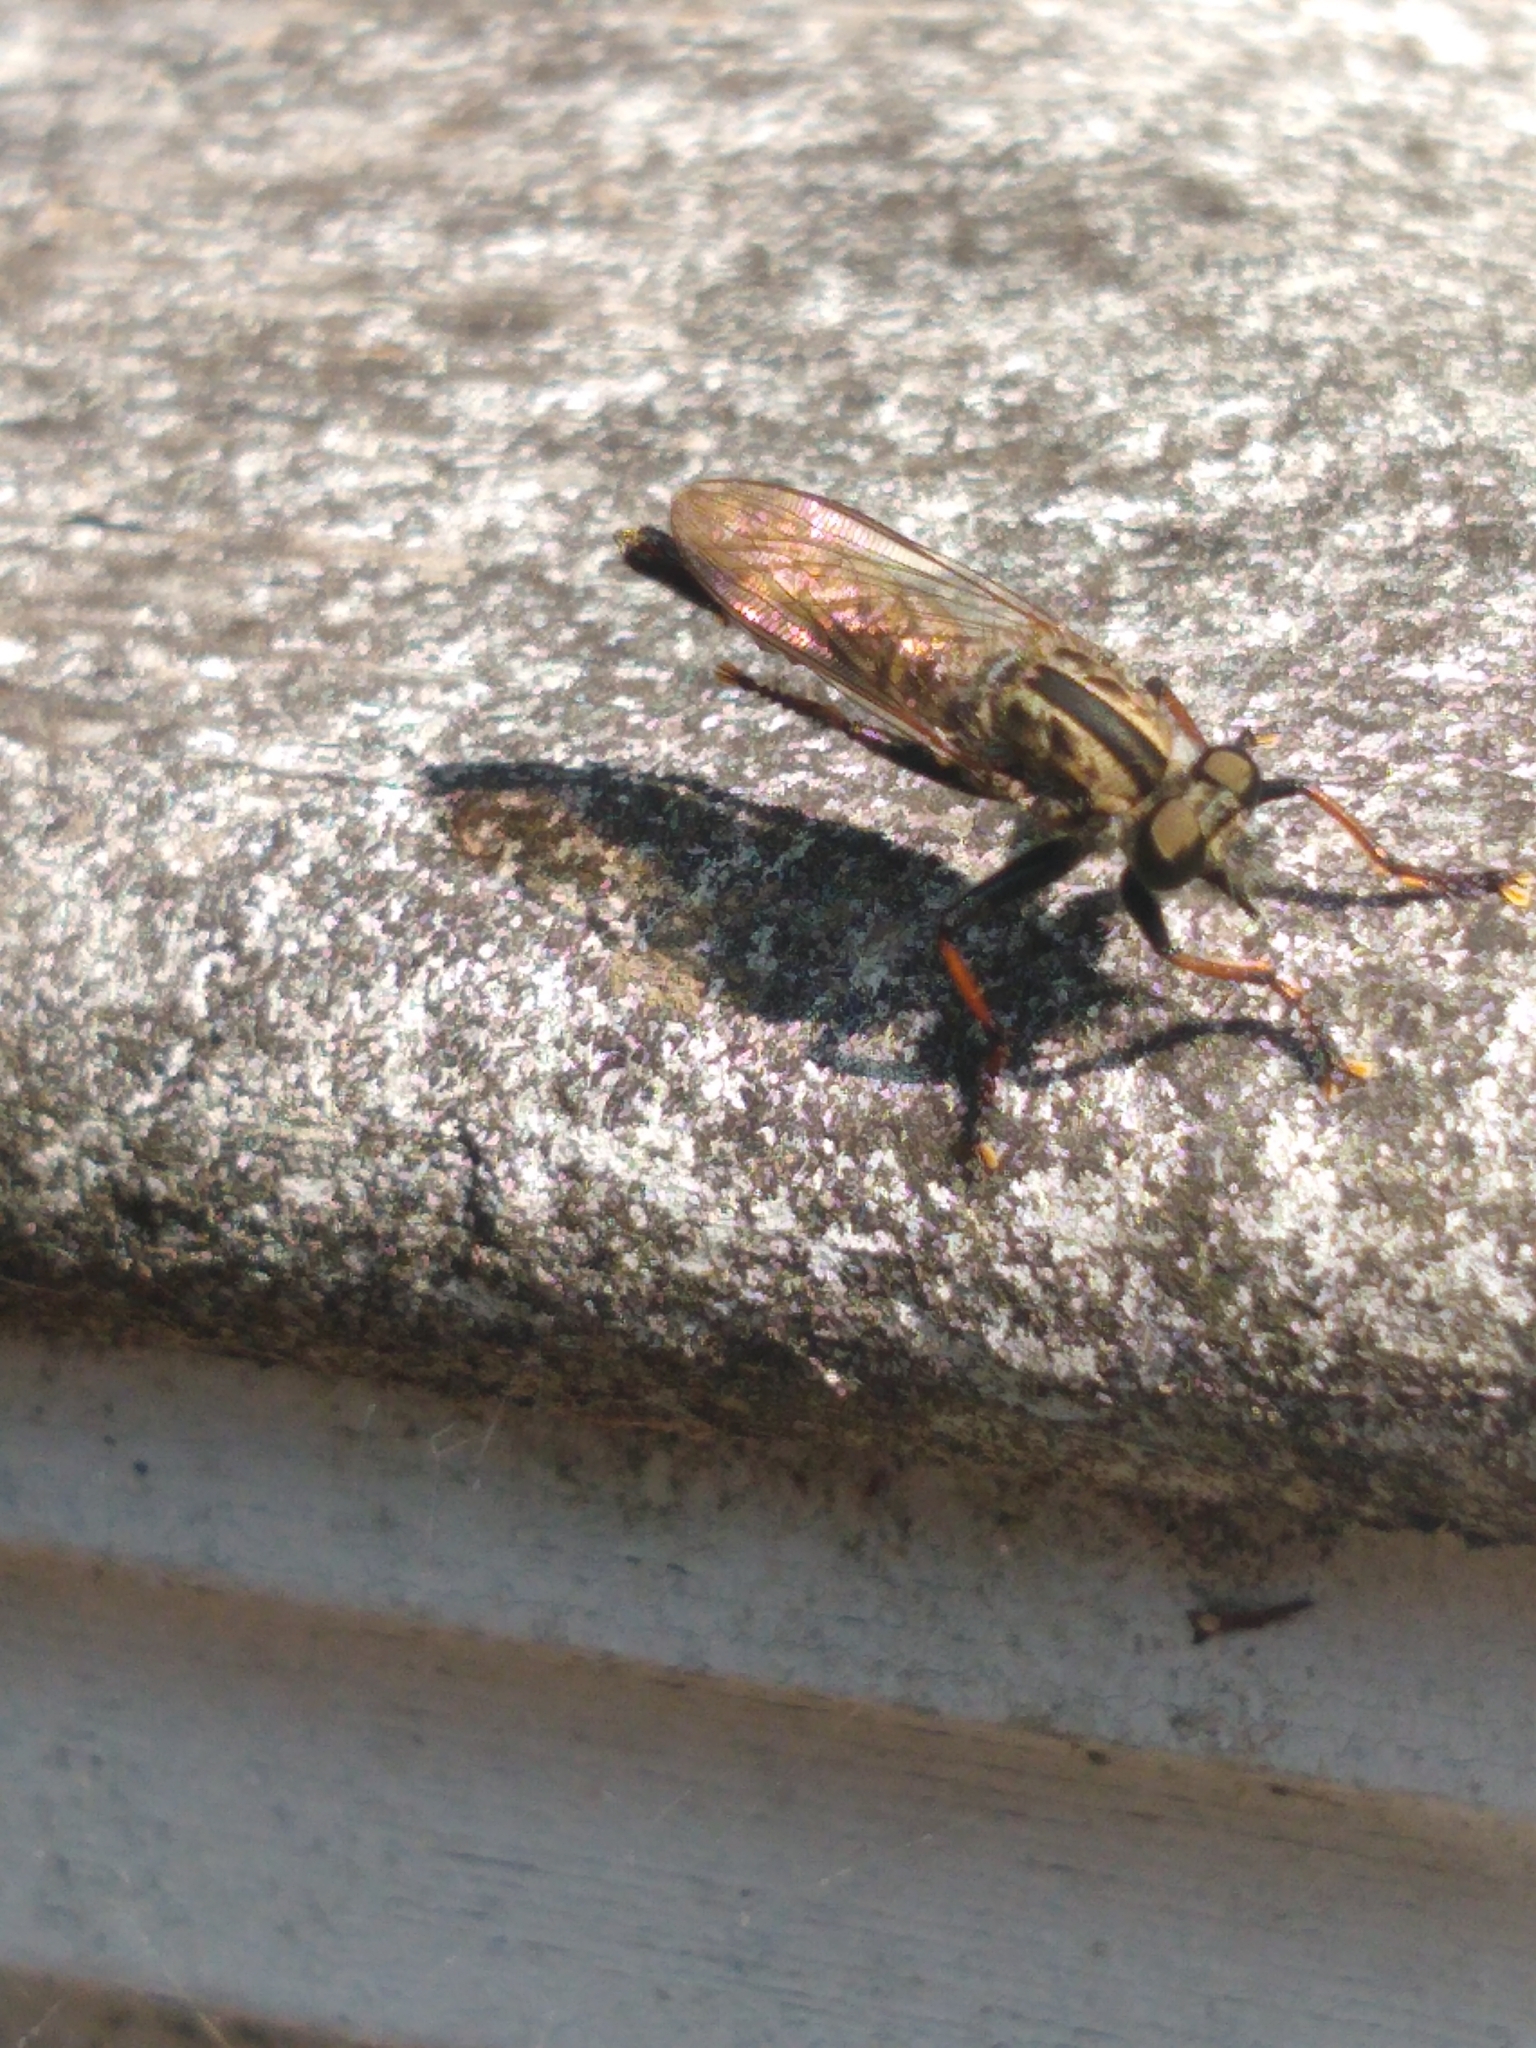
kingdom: Animalia
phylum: Arthropoda
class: Insecta
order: Diptera
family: Asilidae
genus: Efferia
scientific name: Efferia aestuans
